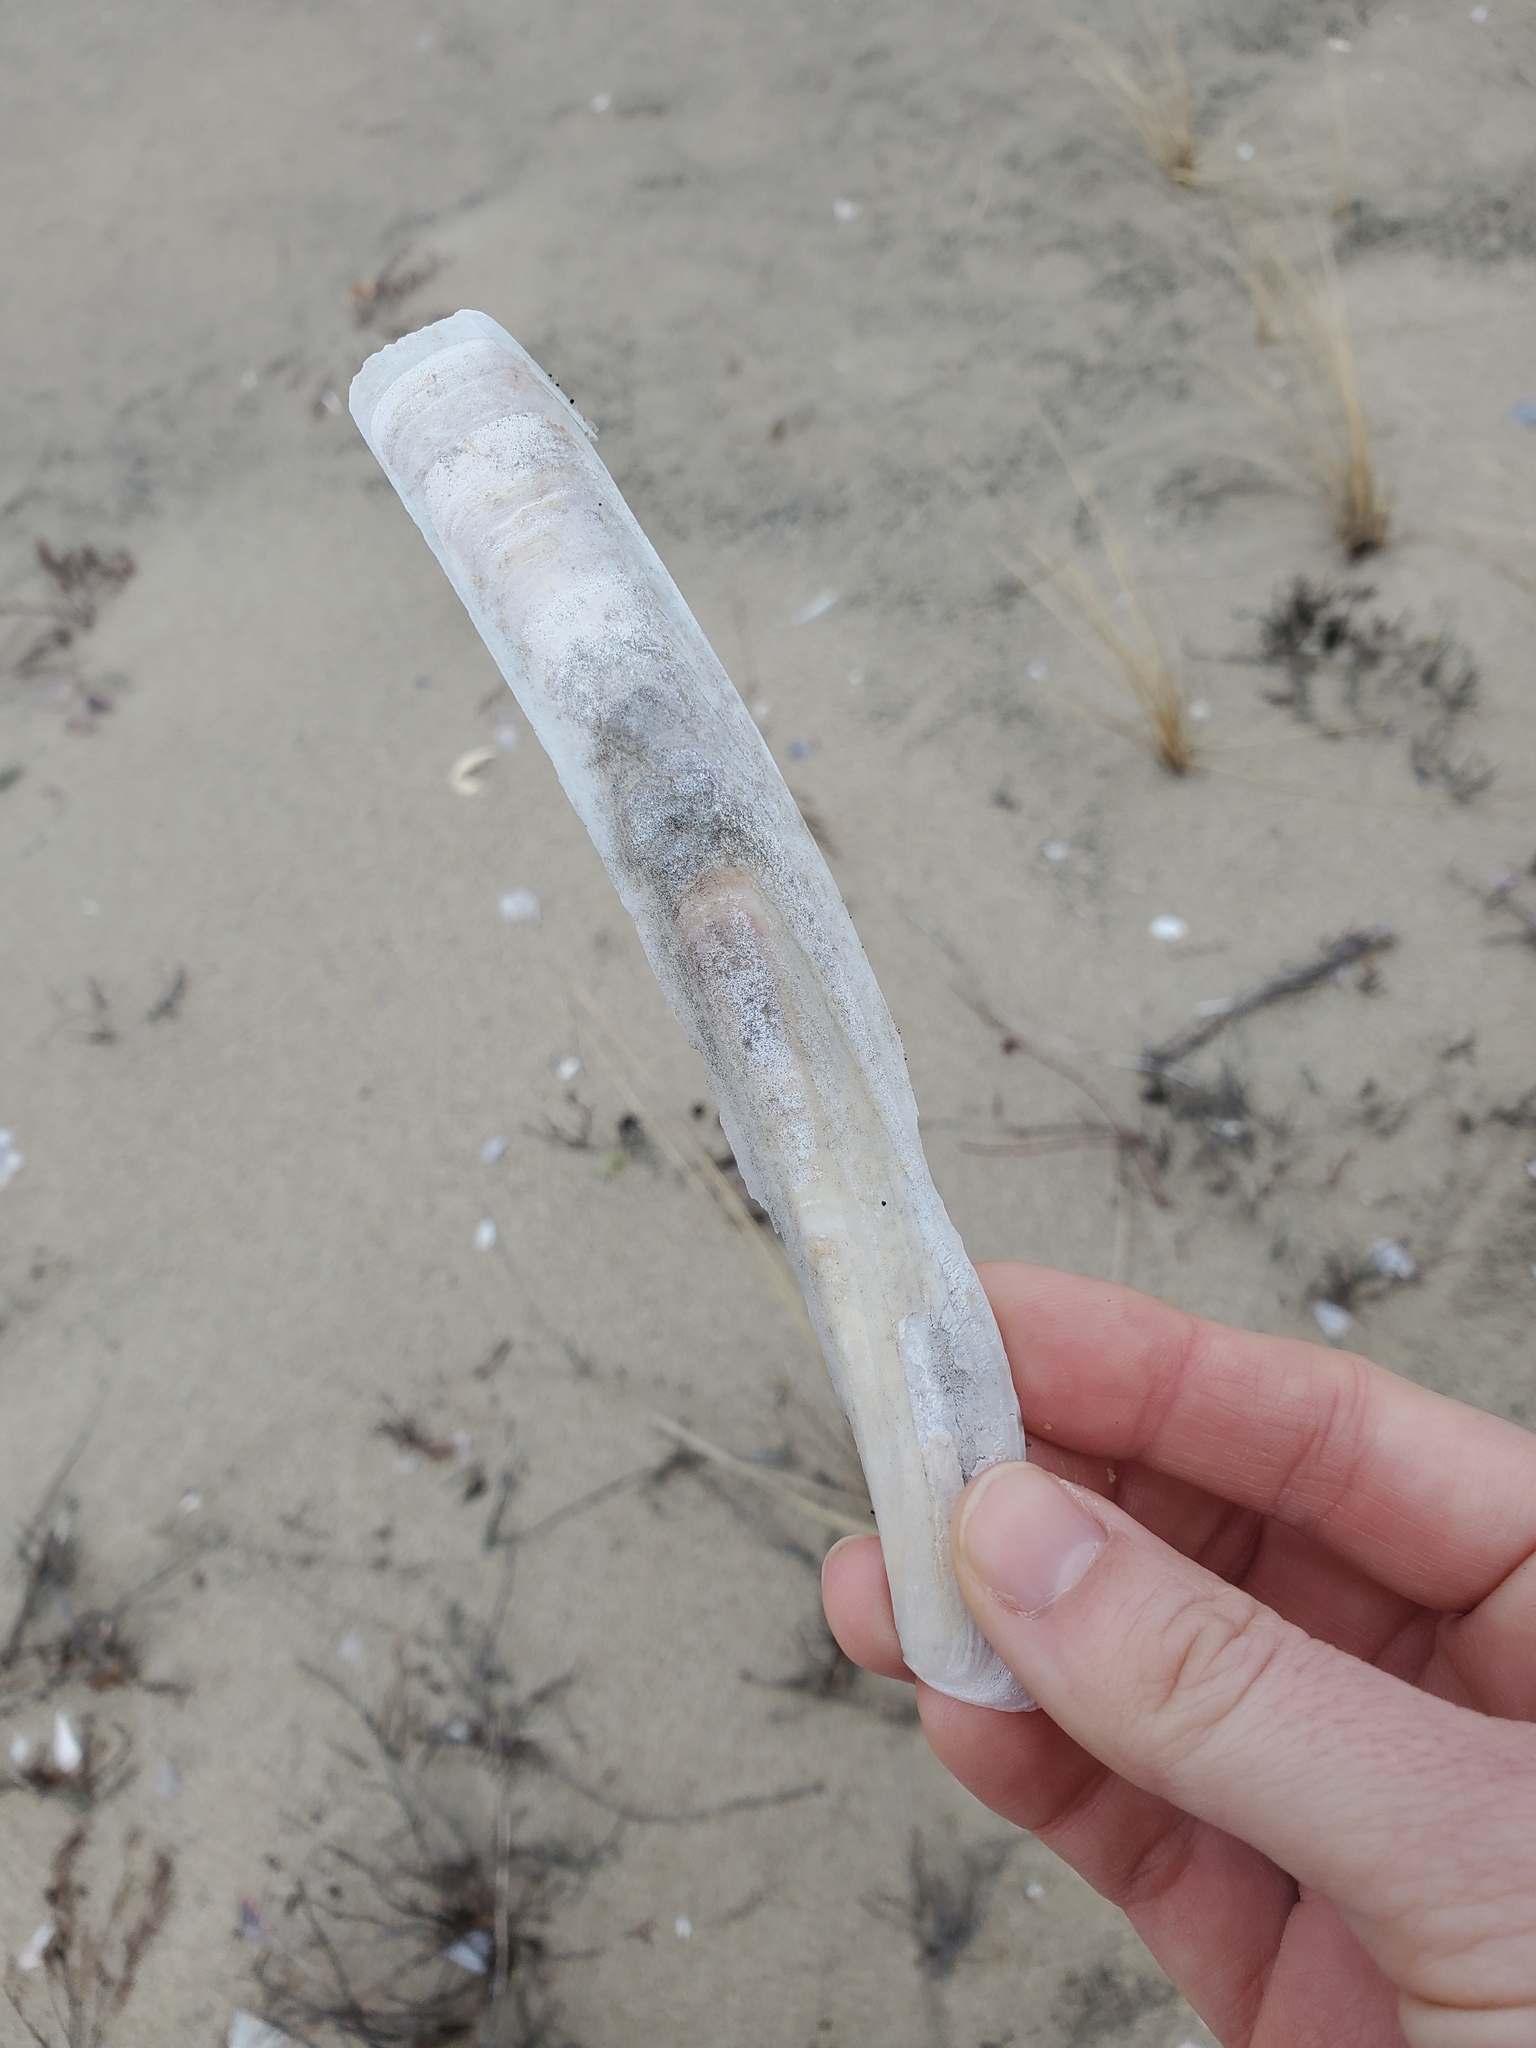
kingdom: Animalia
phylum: Mollusca
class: Bivalvia
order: Adapedonta
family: Pharidae
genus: Ensis
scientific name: Ensis leei
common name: American jack knife clam
